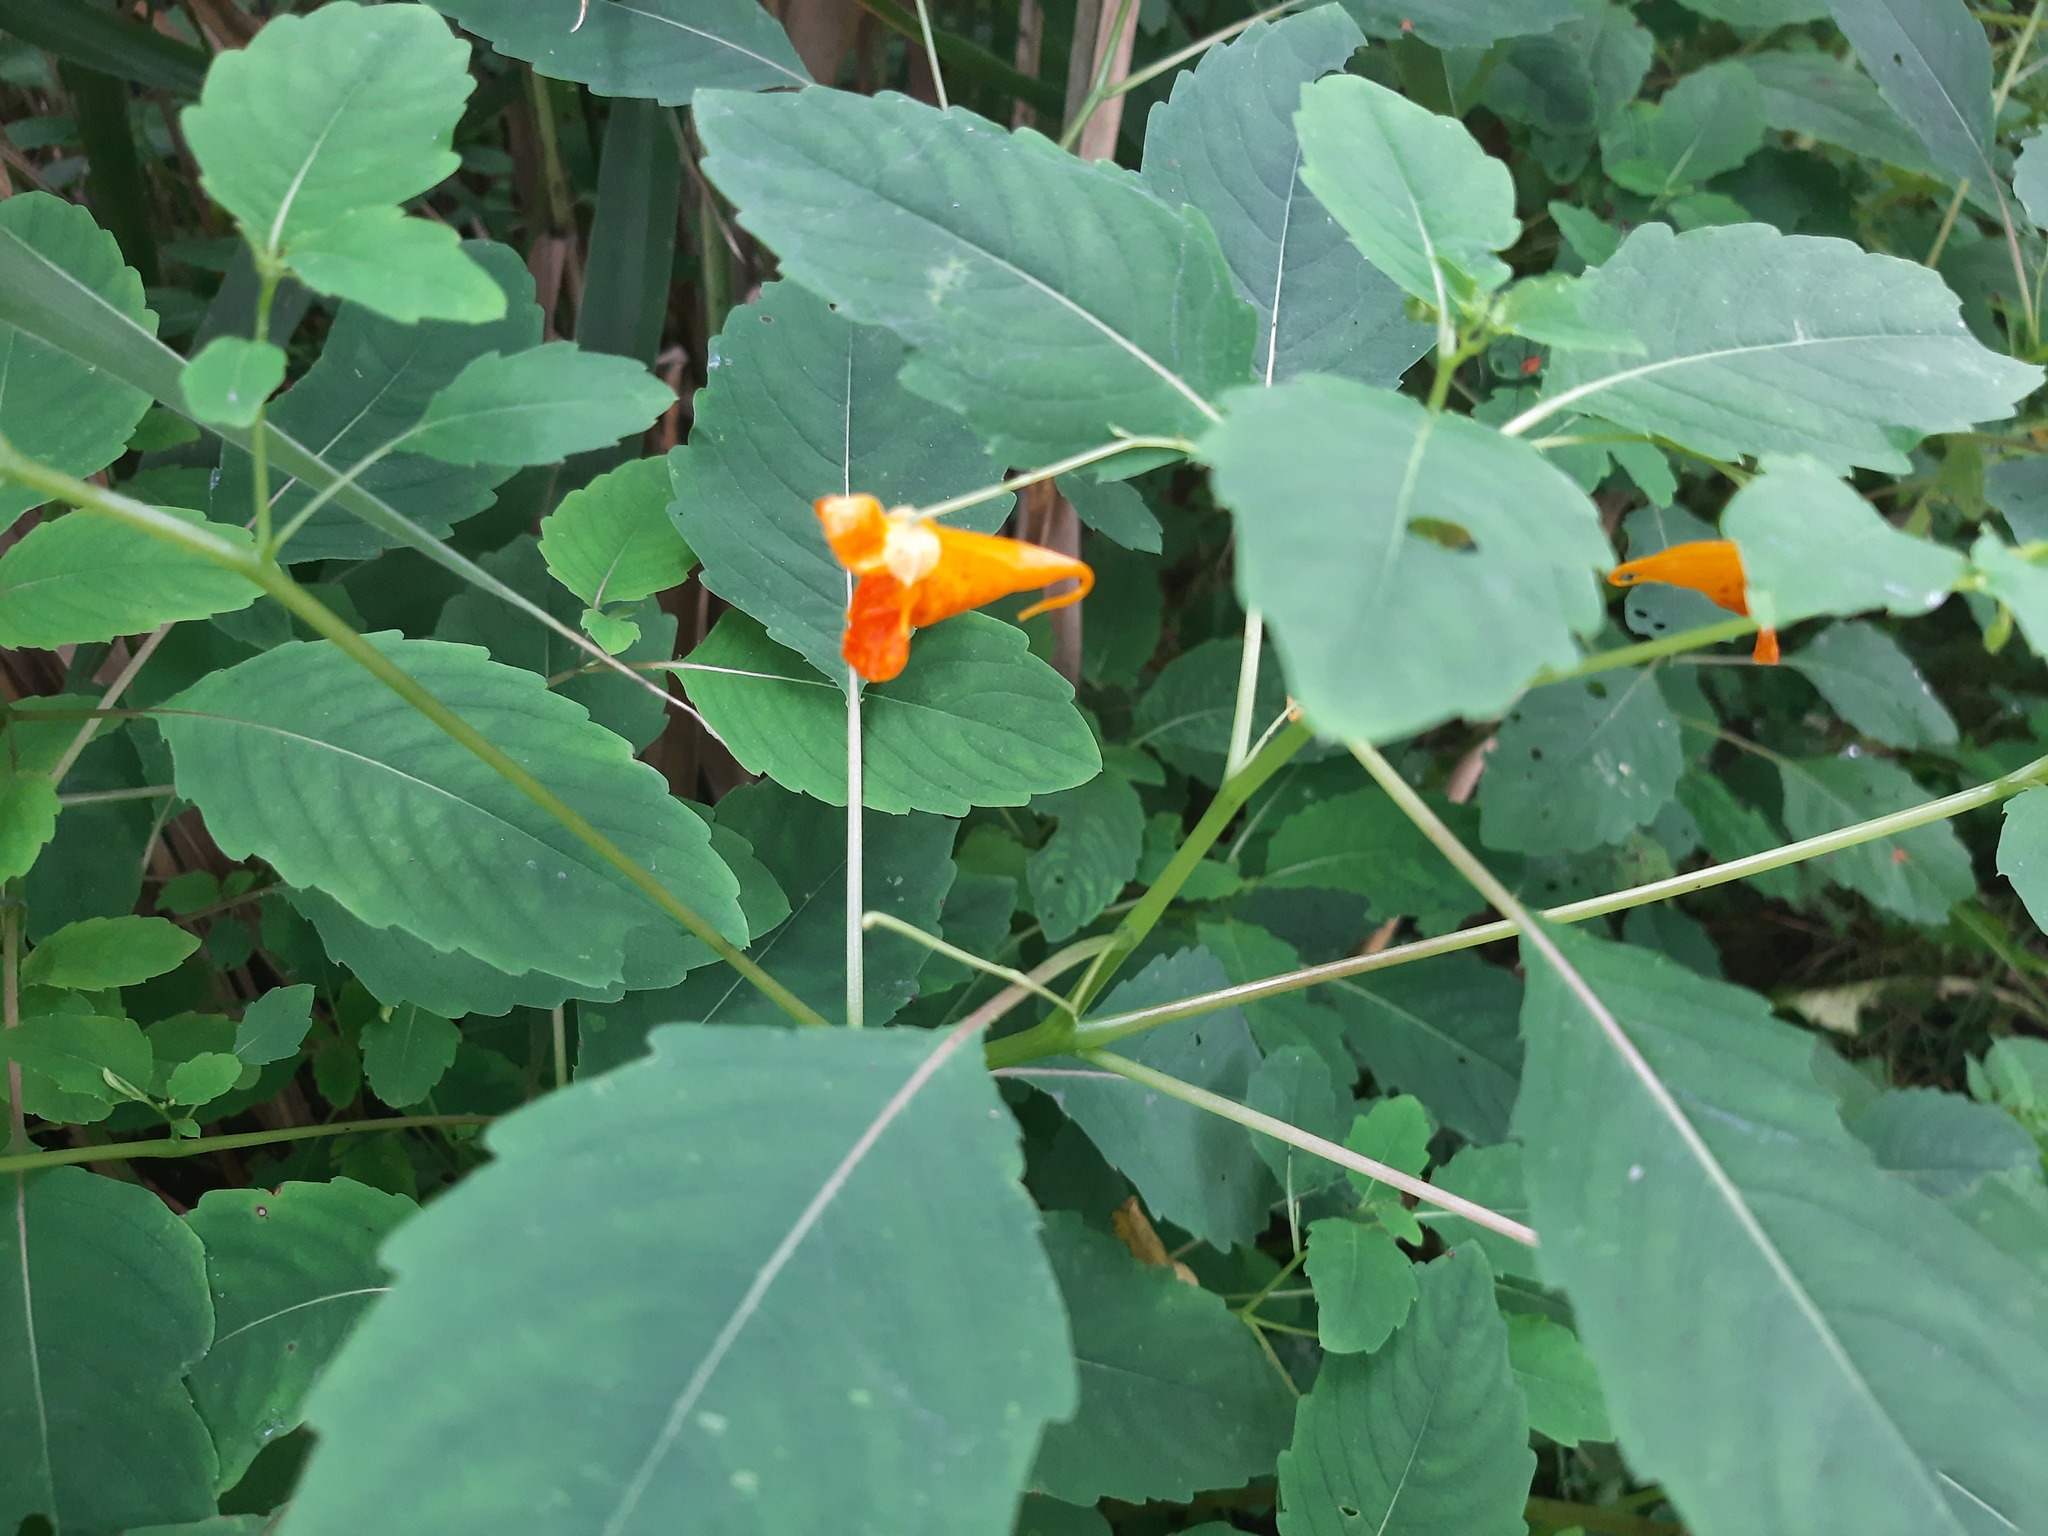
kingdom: Plantae
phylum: Tracheophyta
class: Magnoliopsida
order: Ericales
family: Balsaminaceae
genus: Impatiens
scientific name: Impatiens capensis
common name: Orange balsam
